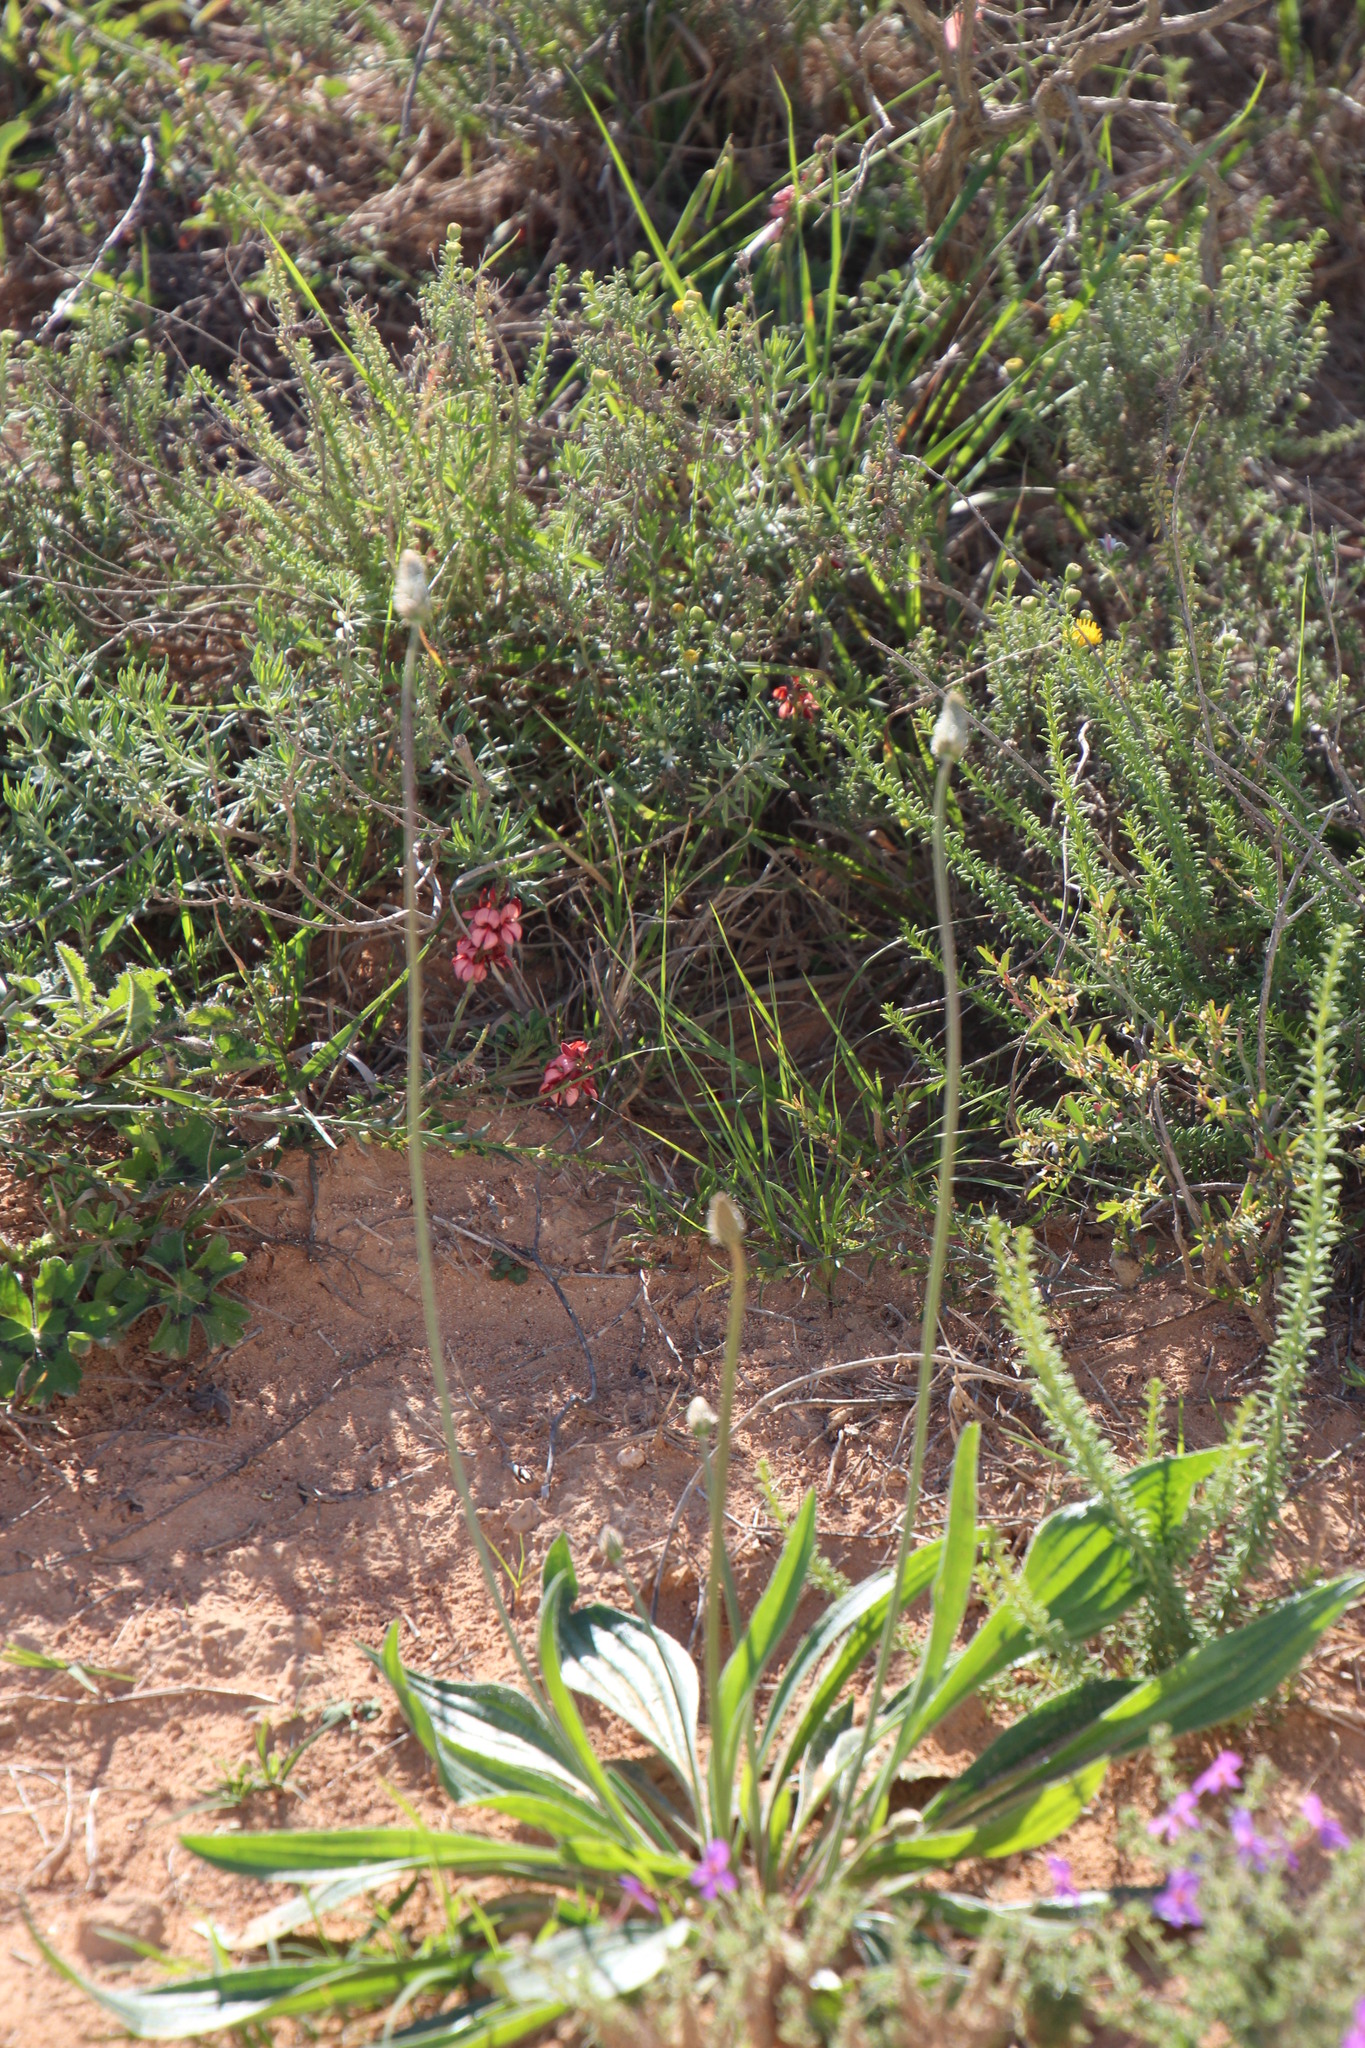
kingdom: Plantae
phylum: Tracheophyta
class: Magnoliopsida
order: Lamiales
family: Plantaginaceae
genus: Plantago
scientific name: Plantago lanceolata
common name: Ribwort plantain
